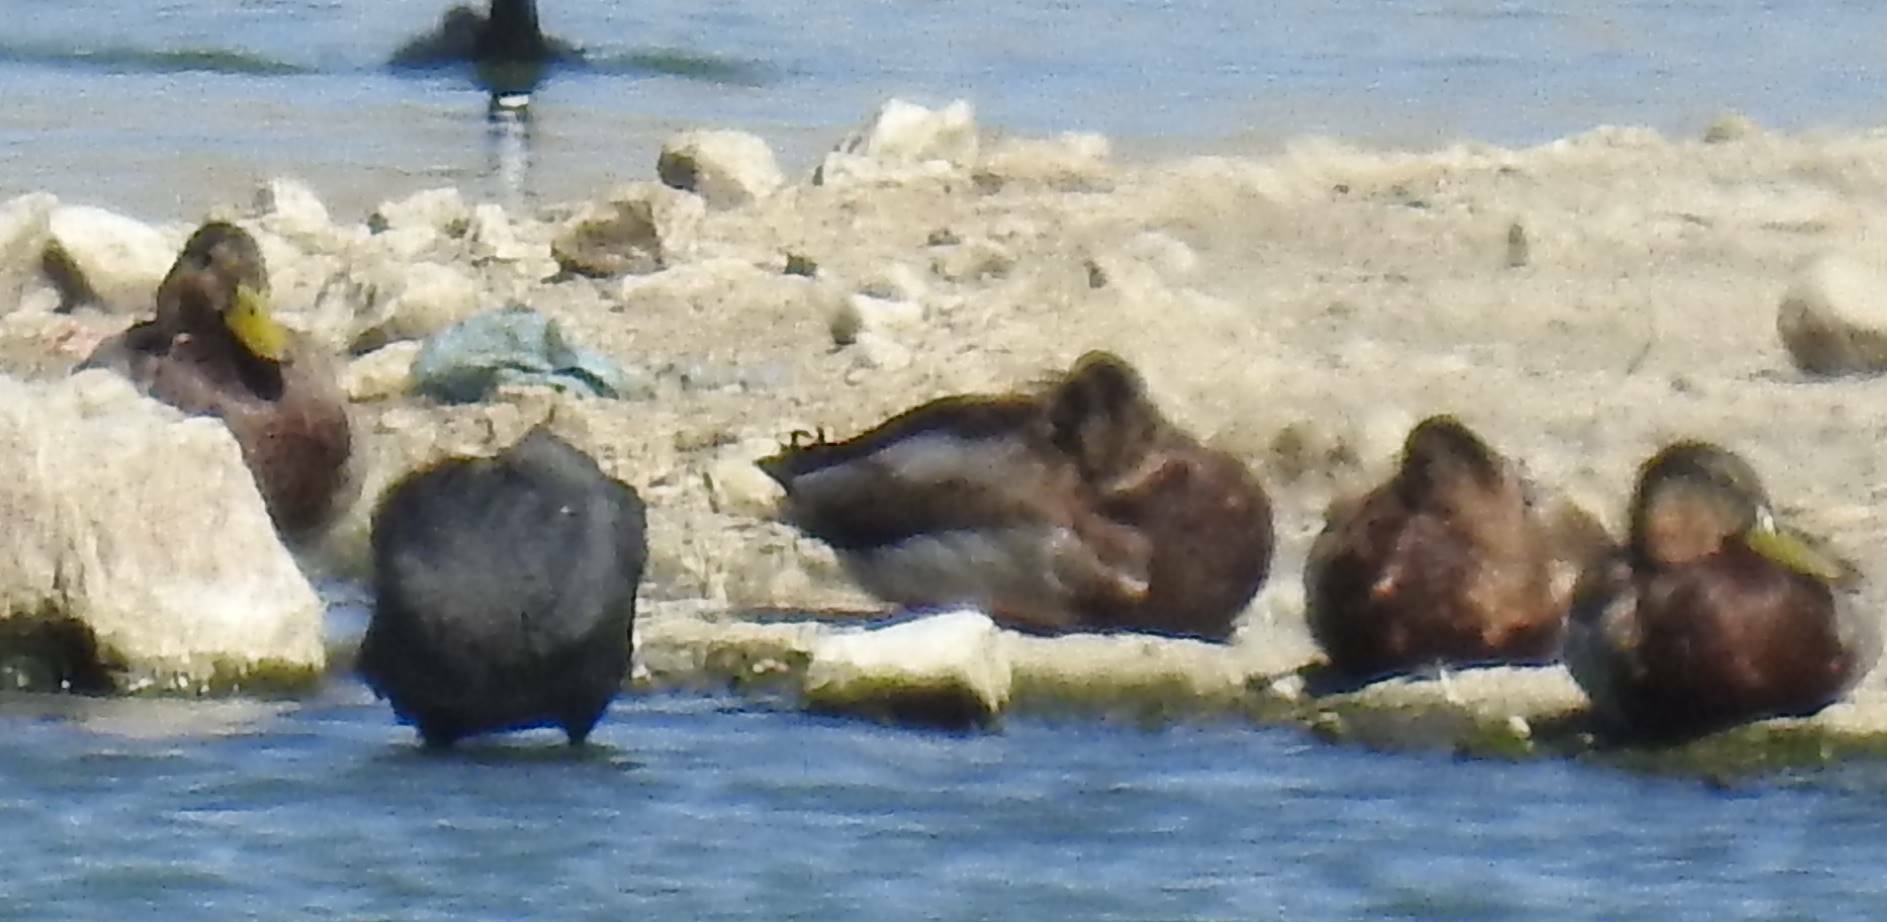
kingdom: Animalia
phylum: Chordata
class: Aves
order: Anseriformes
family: Anatidae
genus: Anas
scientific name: Anas platyrhynchos
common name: Mallard
